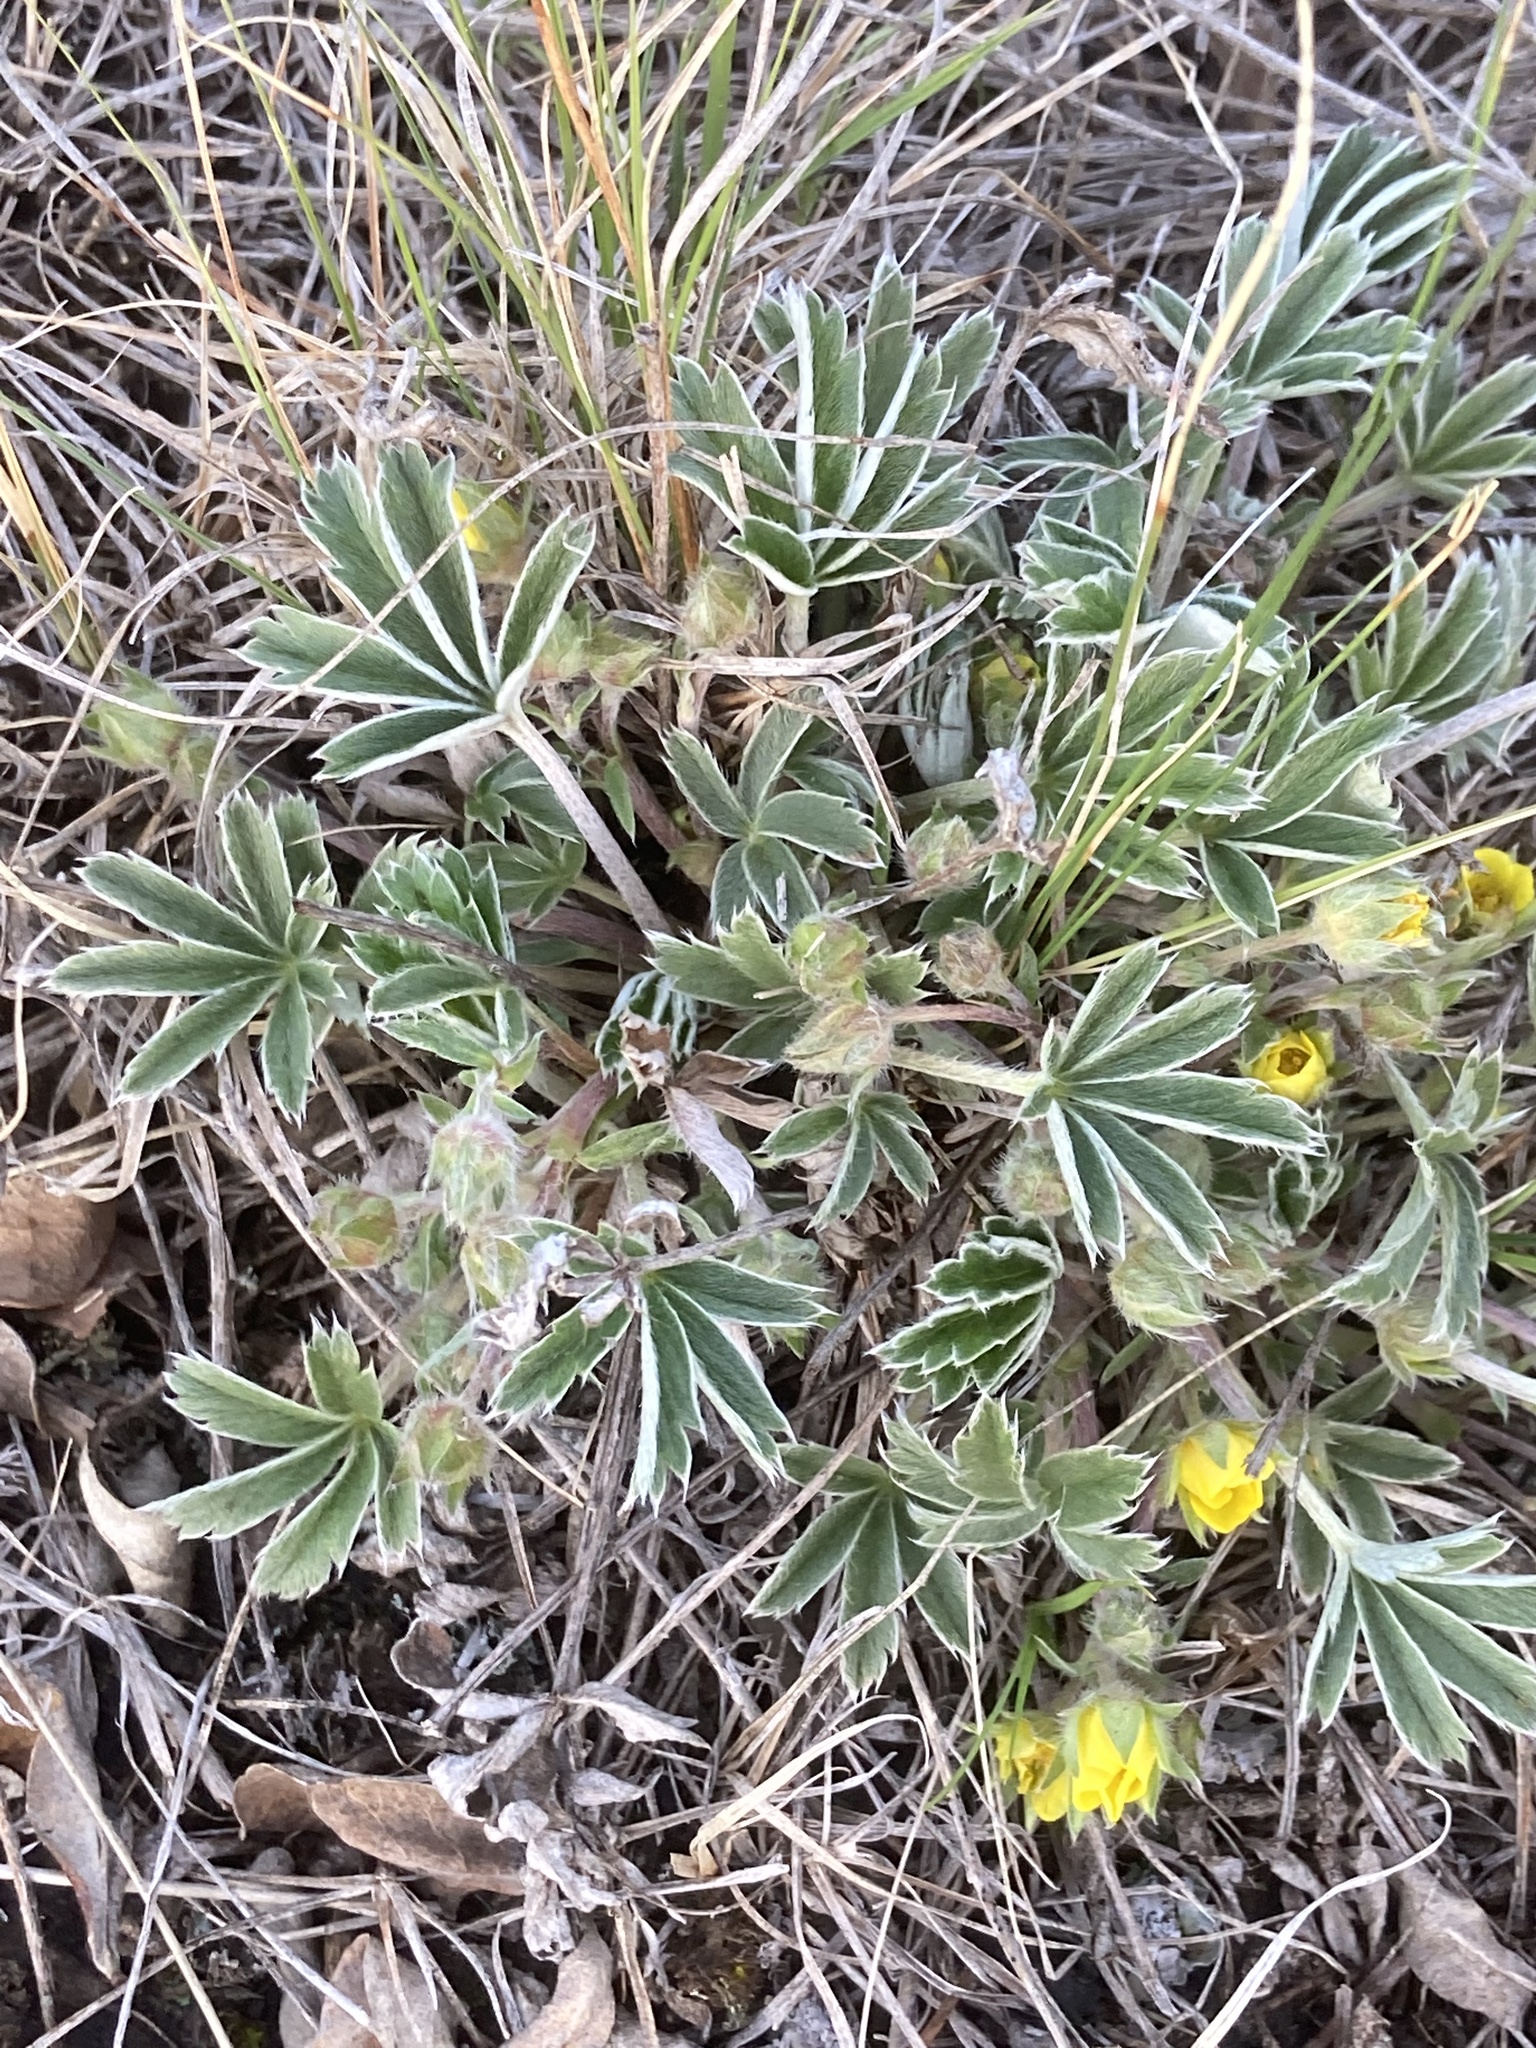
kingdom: Plantae
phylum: Tracheophyta
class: Magnoliopsida
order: Rosales
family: Rosaceae
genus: Potentilla
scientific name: Potentilla concinna
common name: Early cinquefoil
